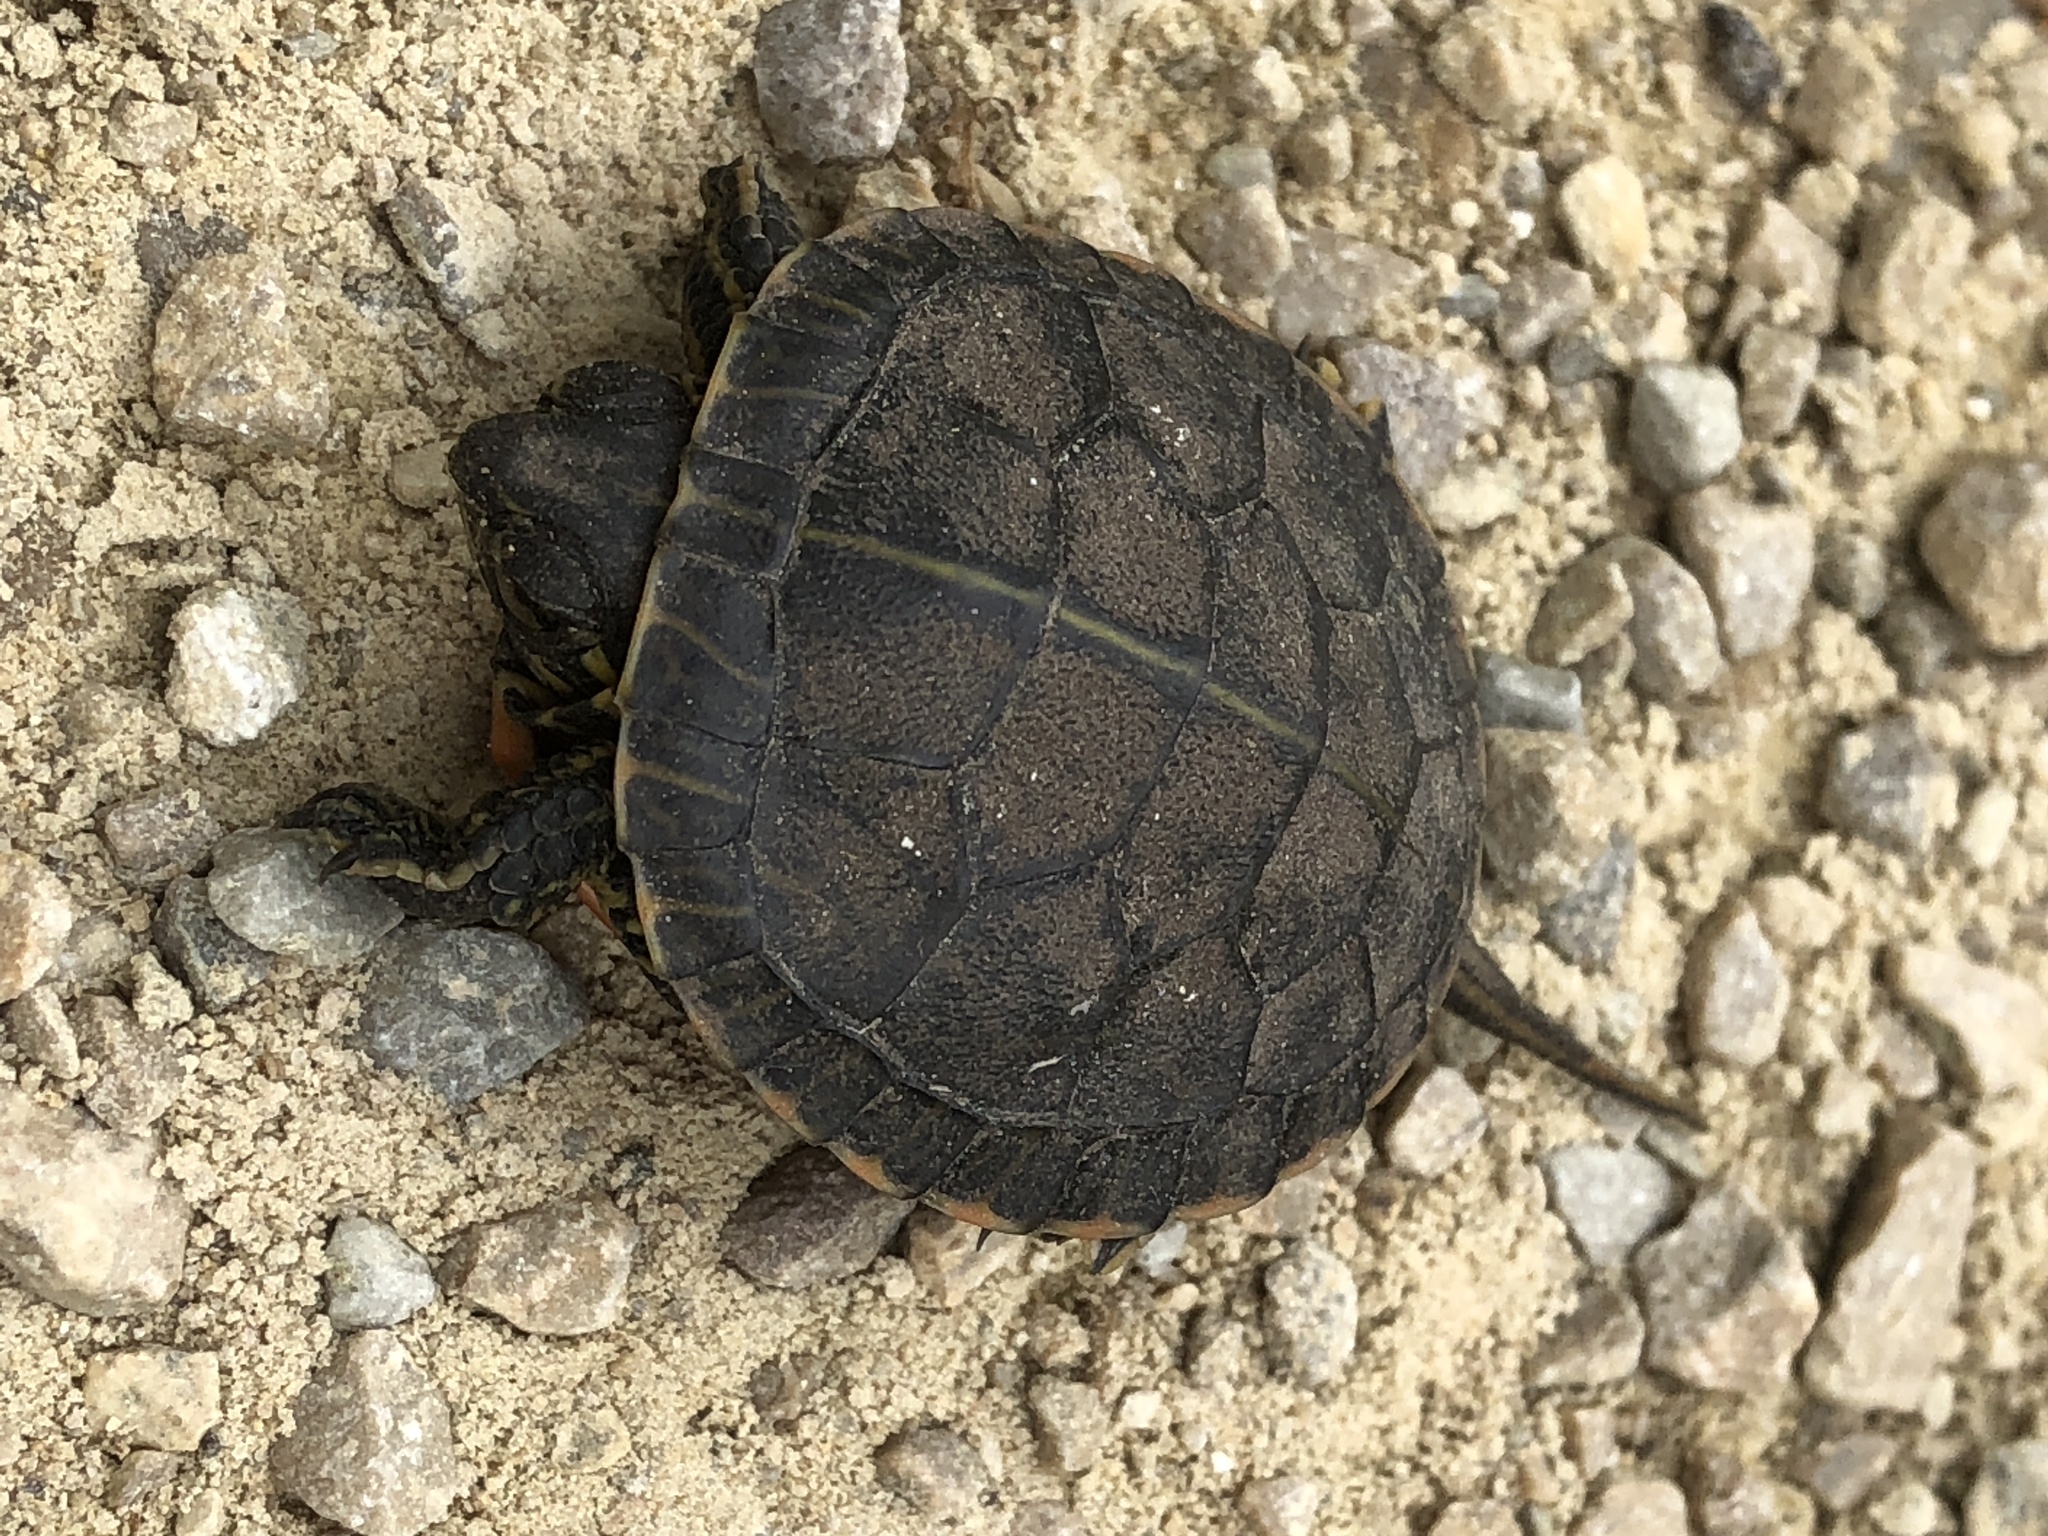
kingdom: Animalia
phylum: Chordata
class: Testudines
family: Emydidae
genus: Chrysemys
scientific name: Chrysemys picta
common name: Painted turtle
